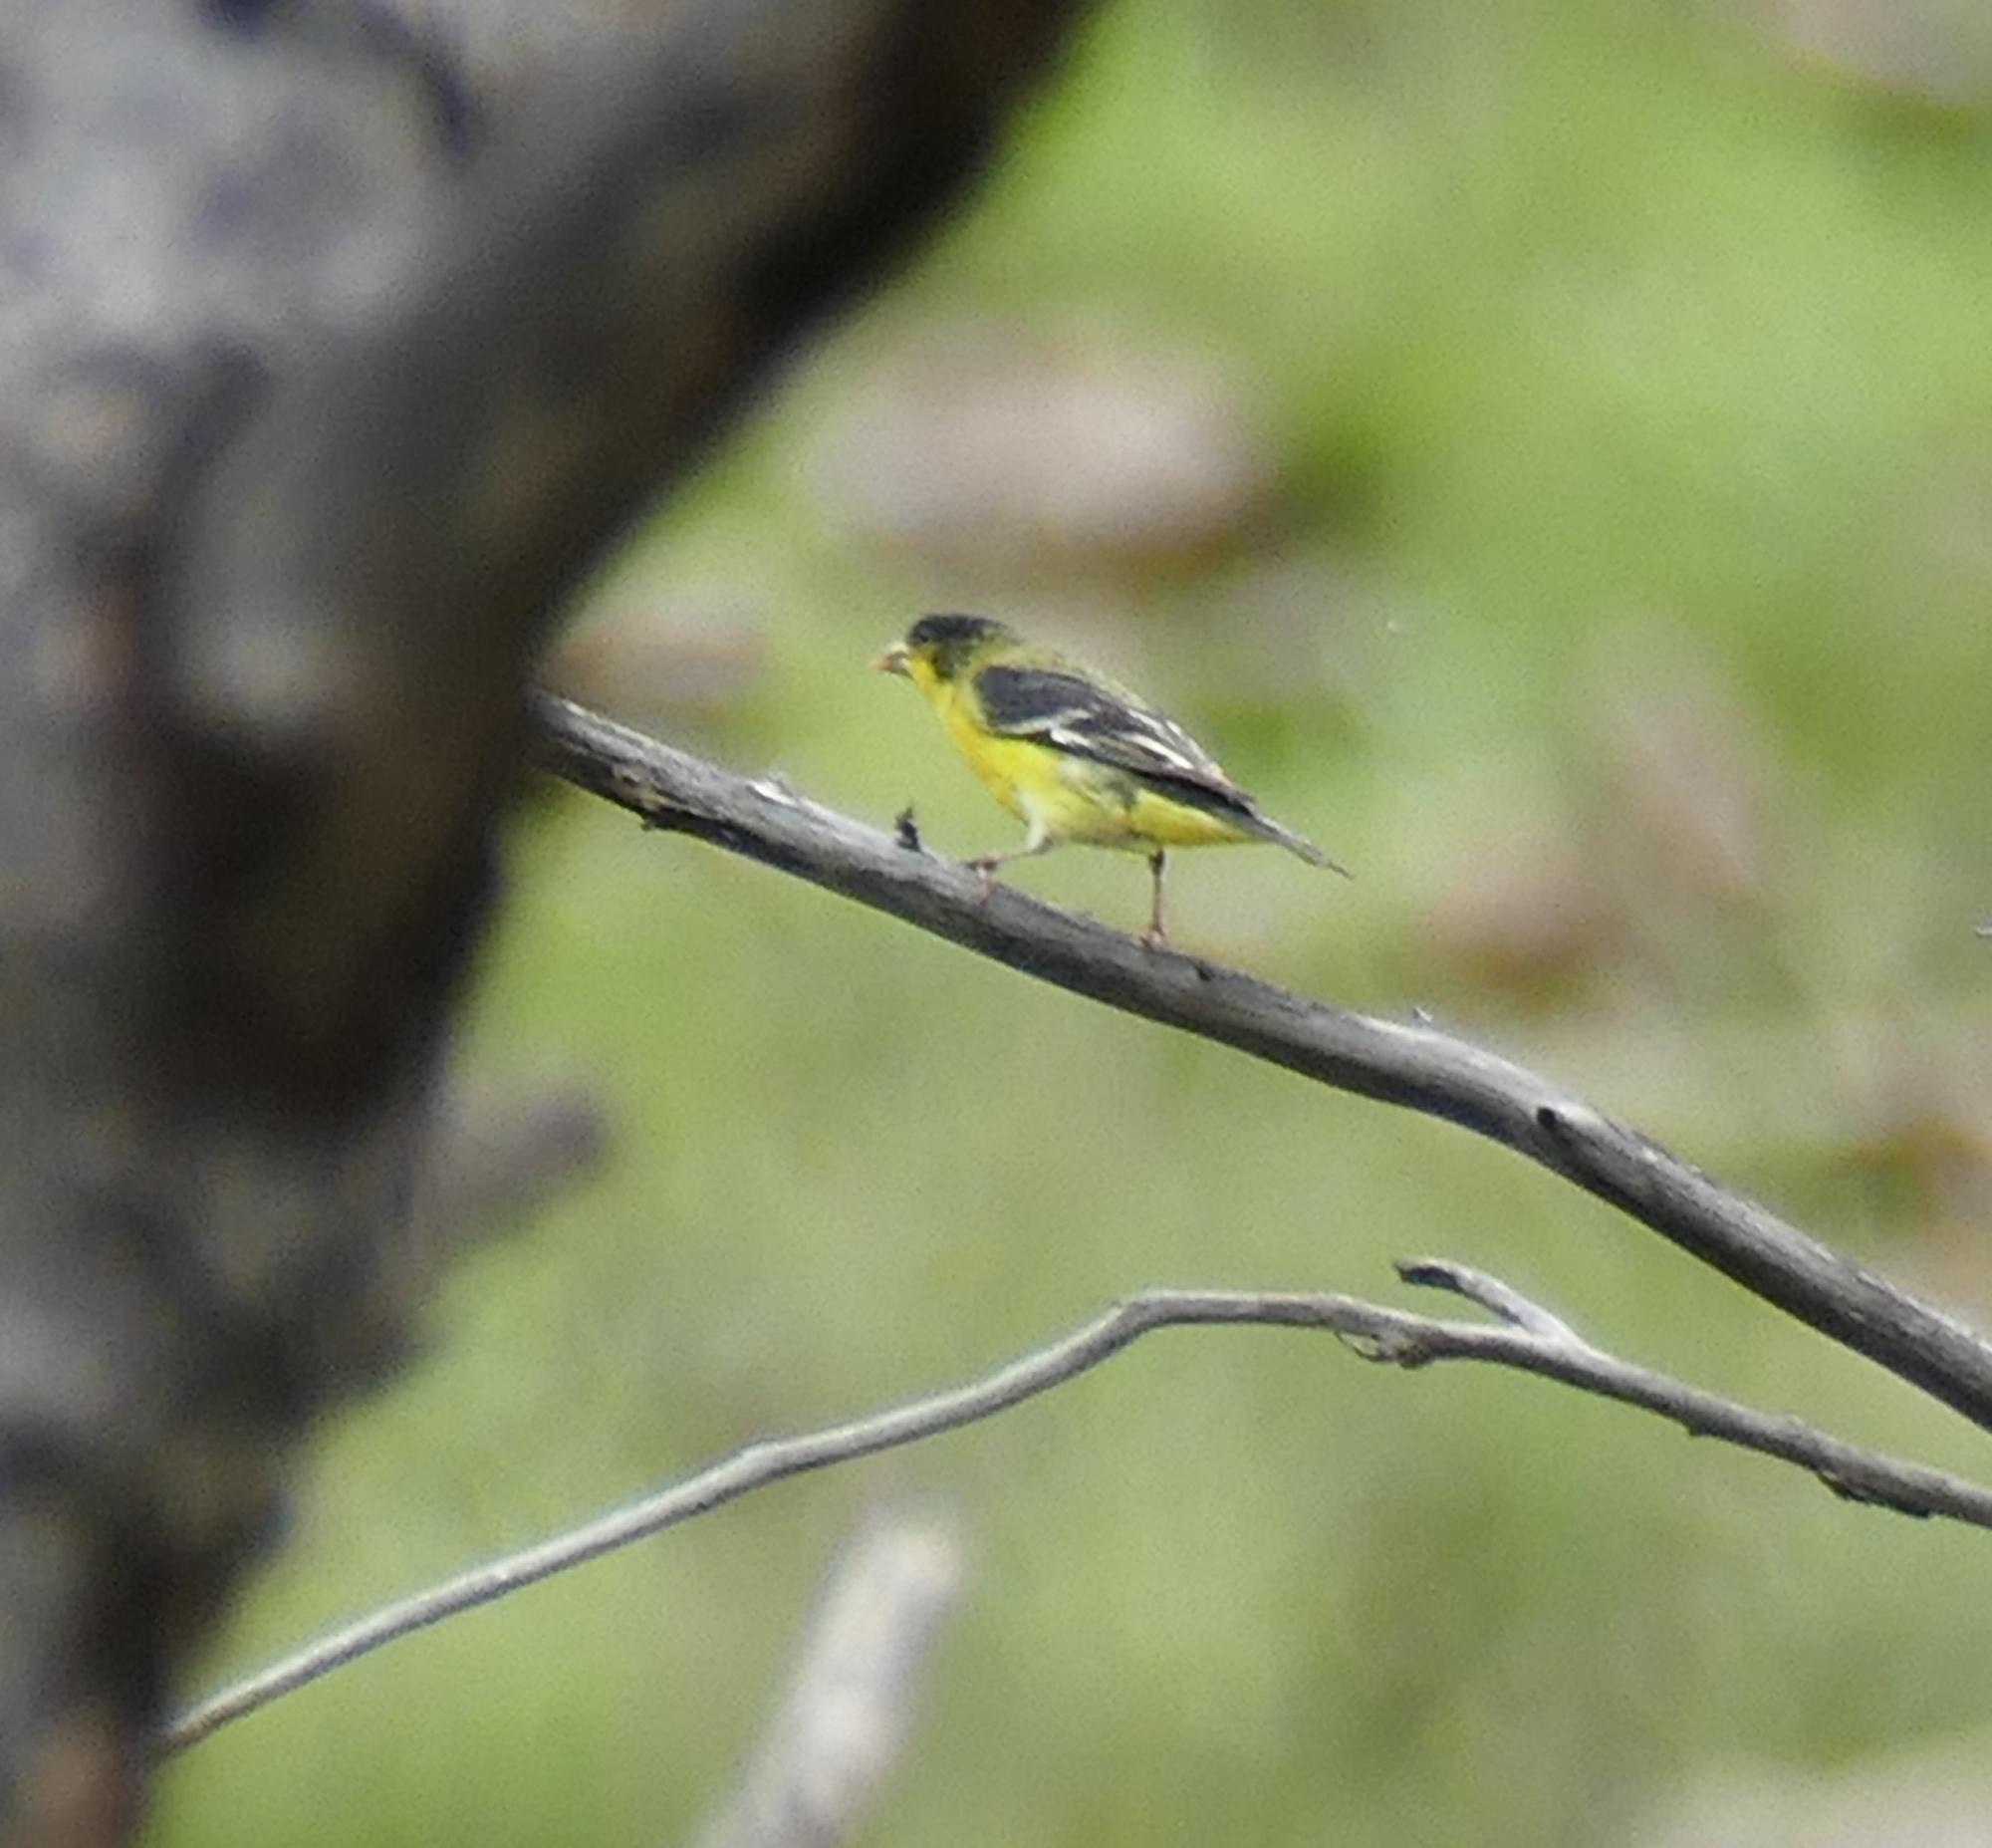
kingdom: Animalia
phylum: Chordata
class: Aves
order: Passeriformes
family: Fringillidae
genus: Spinus
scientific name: Spinus psaltria
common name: Lesser goldfinch
